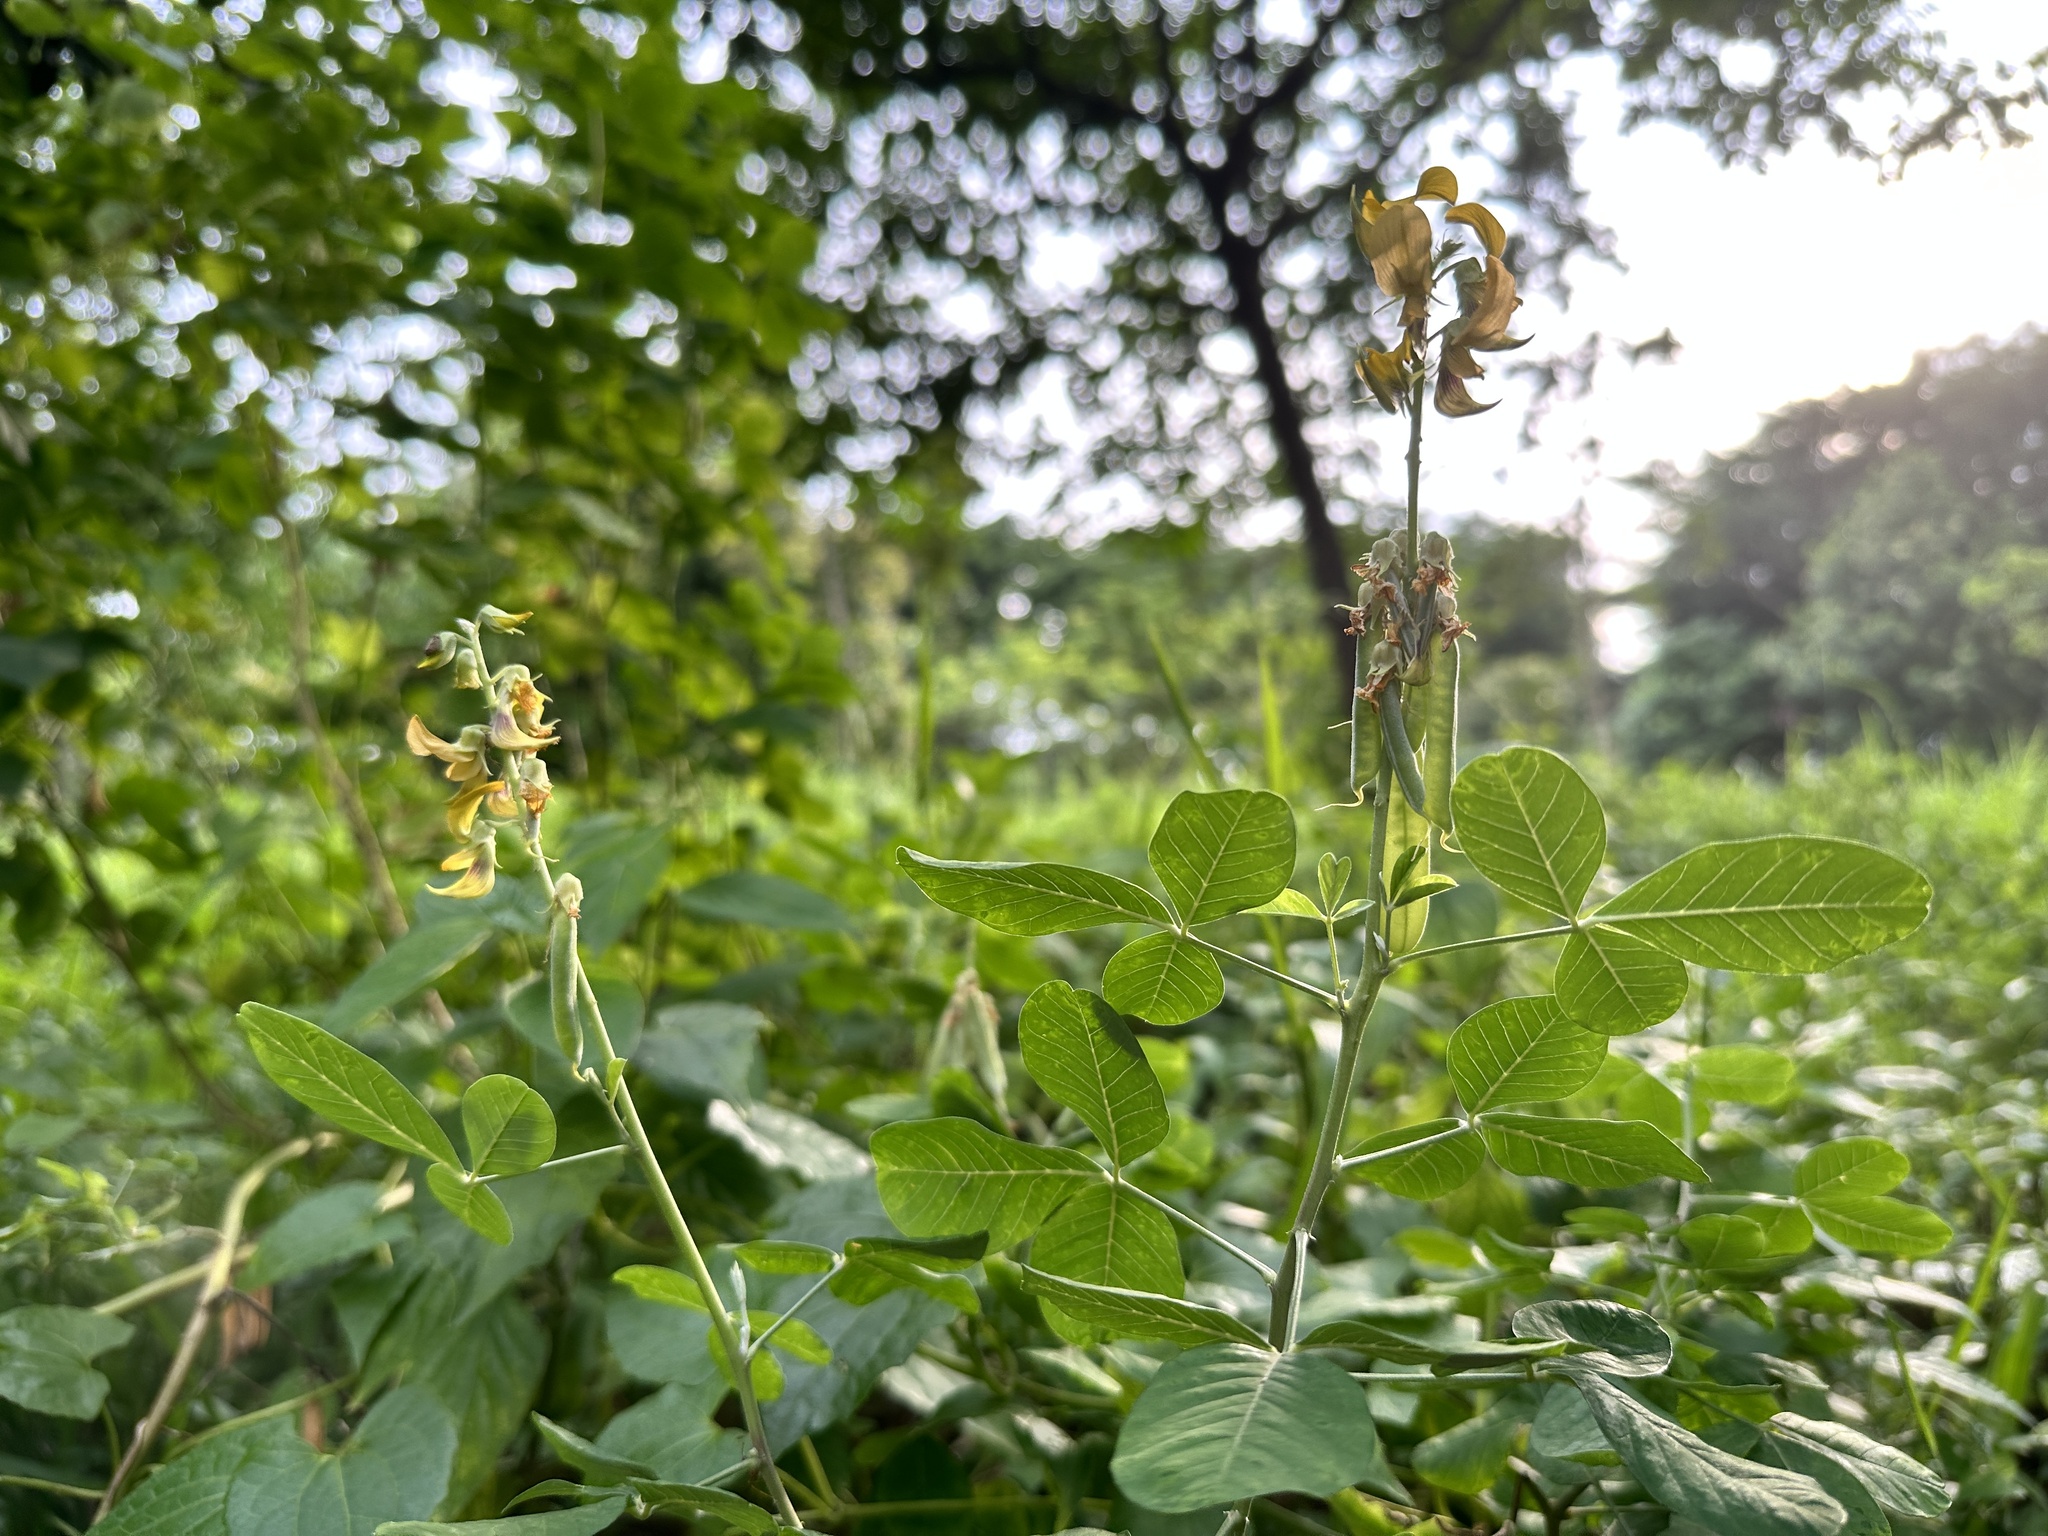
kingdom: Plantae
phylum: Tracheophyta
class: Magnoliopsida
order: Fabales
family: Fabaceae
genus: Crotalaria
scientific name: Crotalaria pallida
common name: Smooth rattlebox
